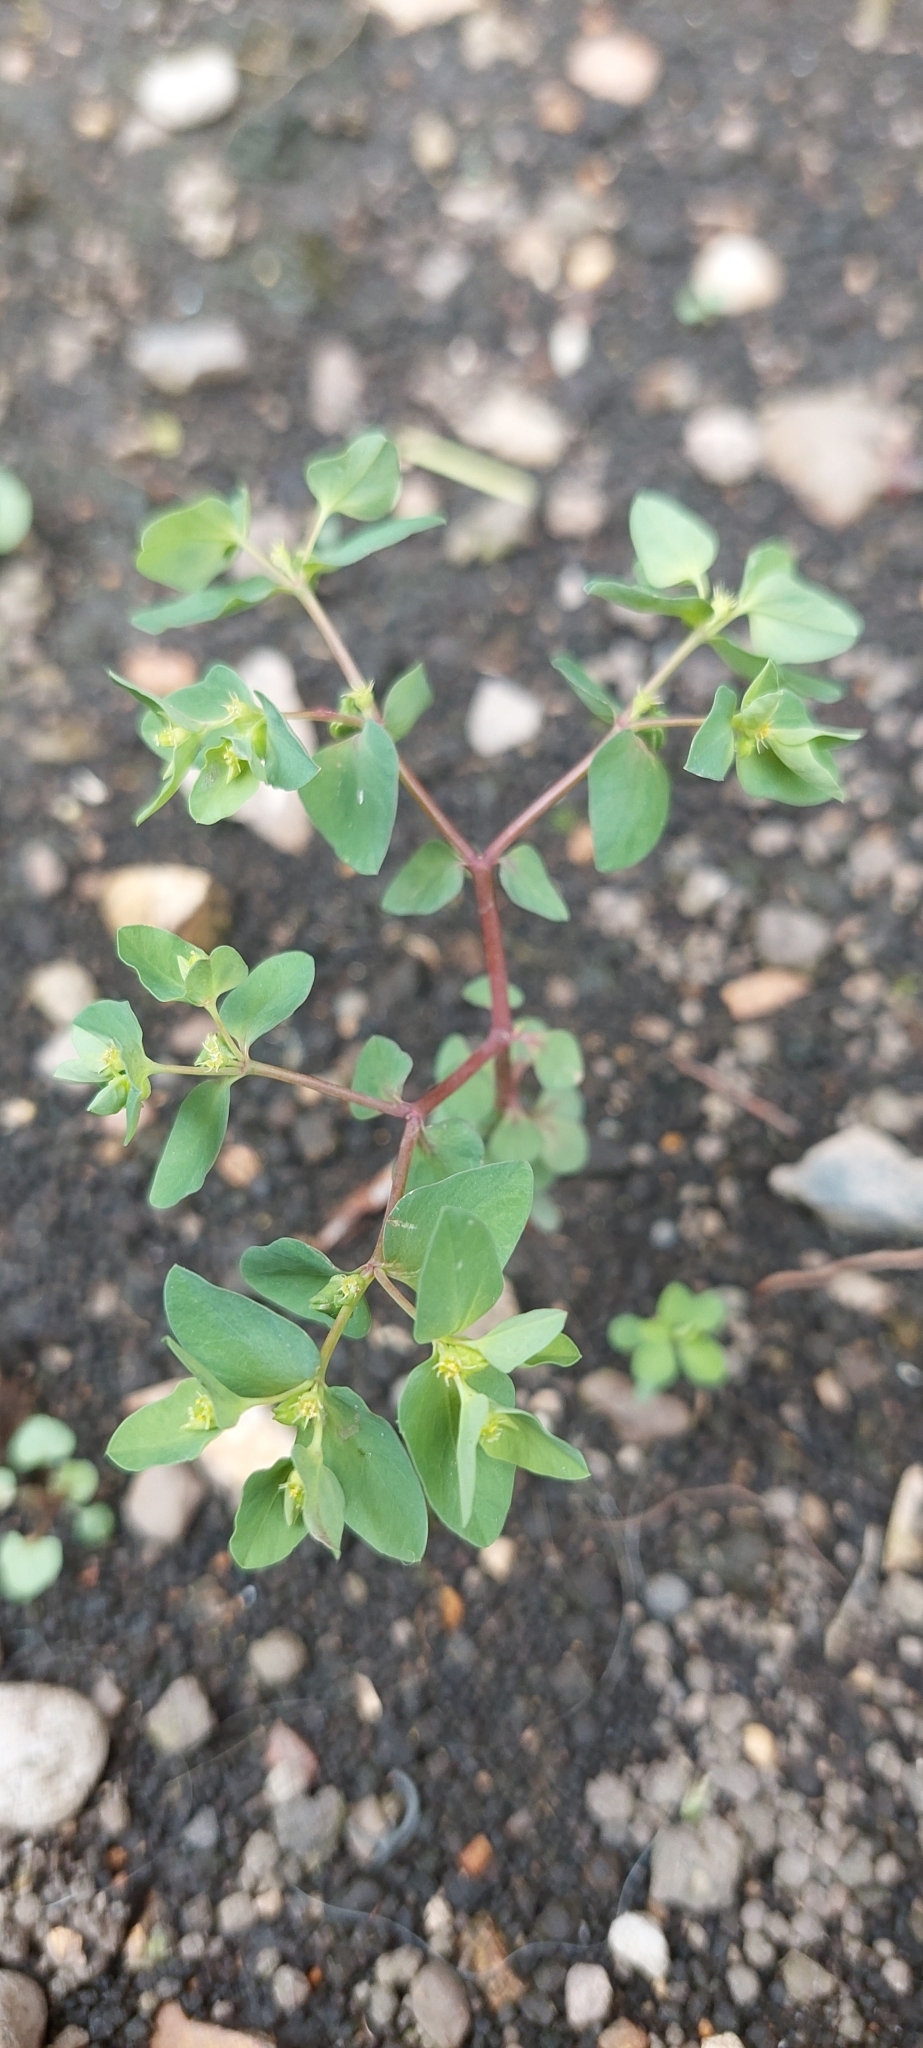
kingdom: Plantae
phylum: Tracheophyta
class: Magnoliopsida
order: Malpighiales
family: Euphorbiaceae
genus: Euphorbia
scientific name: Euphorbia peplus
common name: Petty spurge
